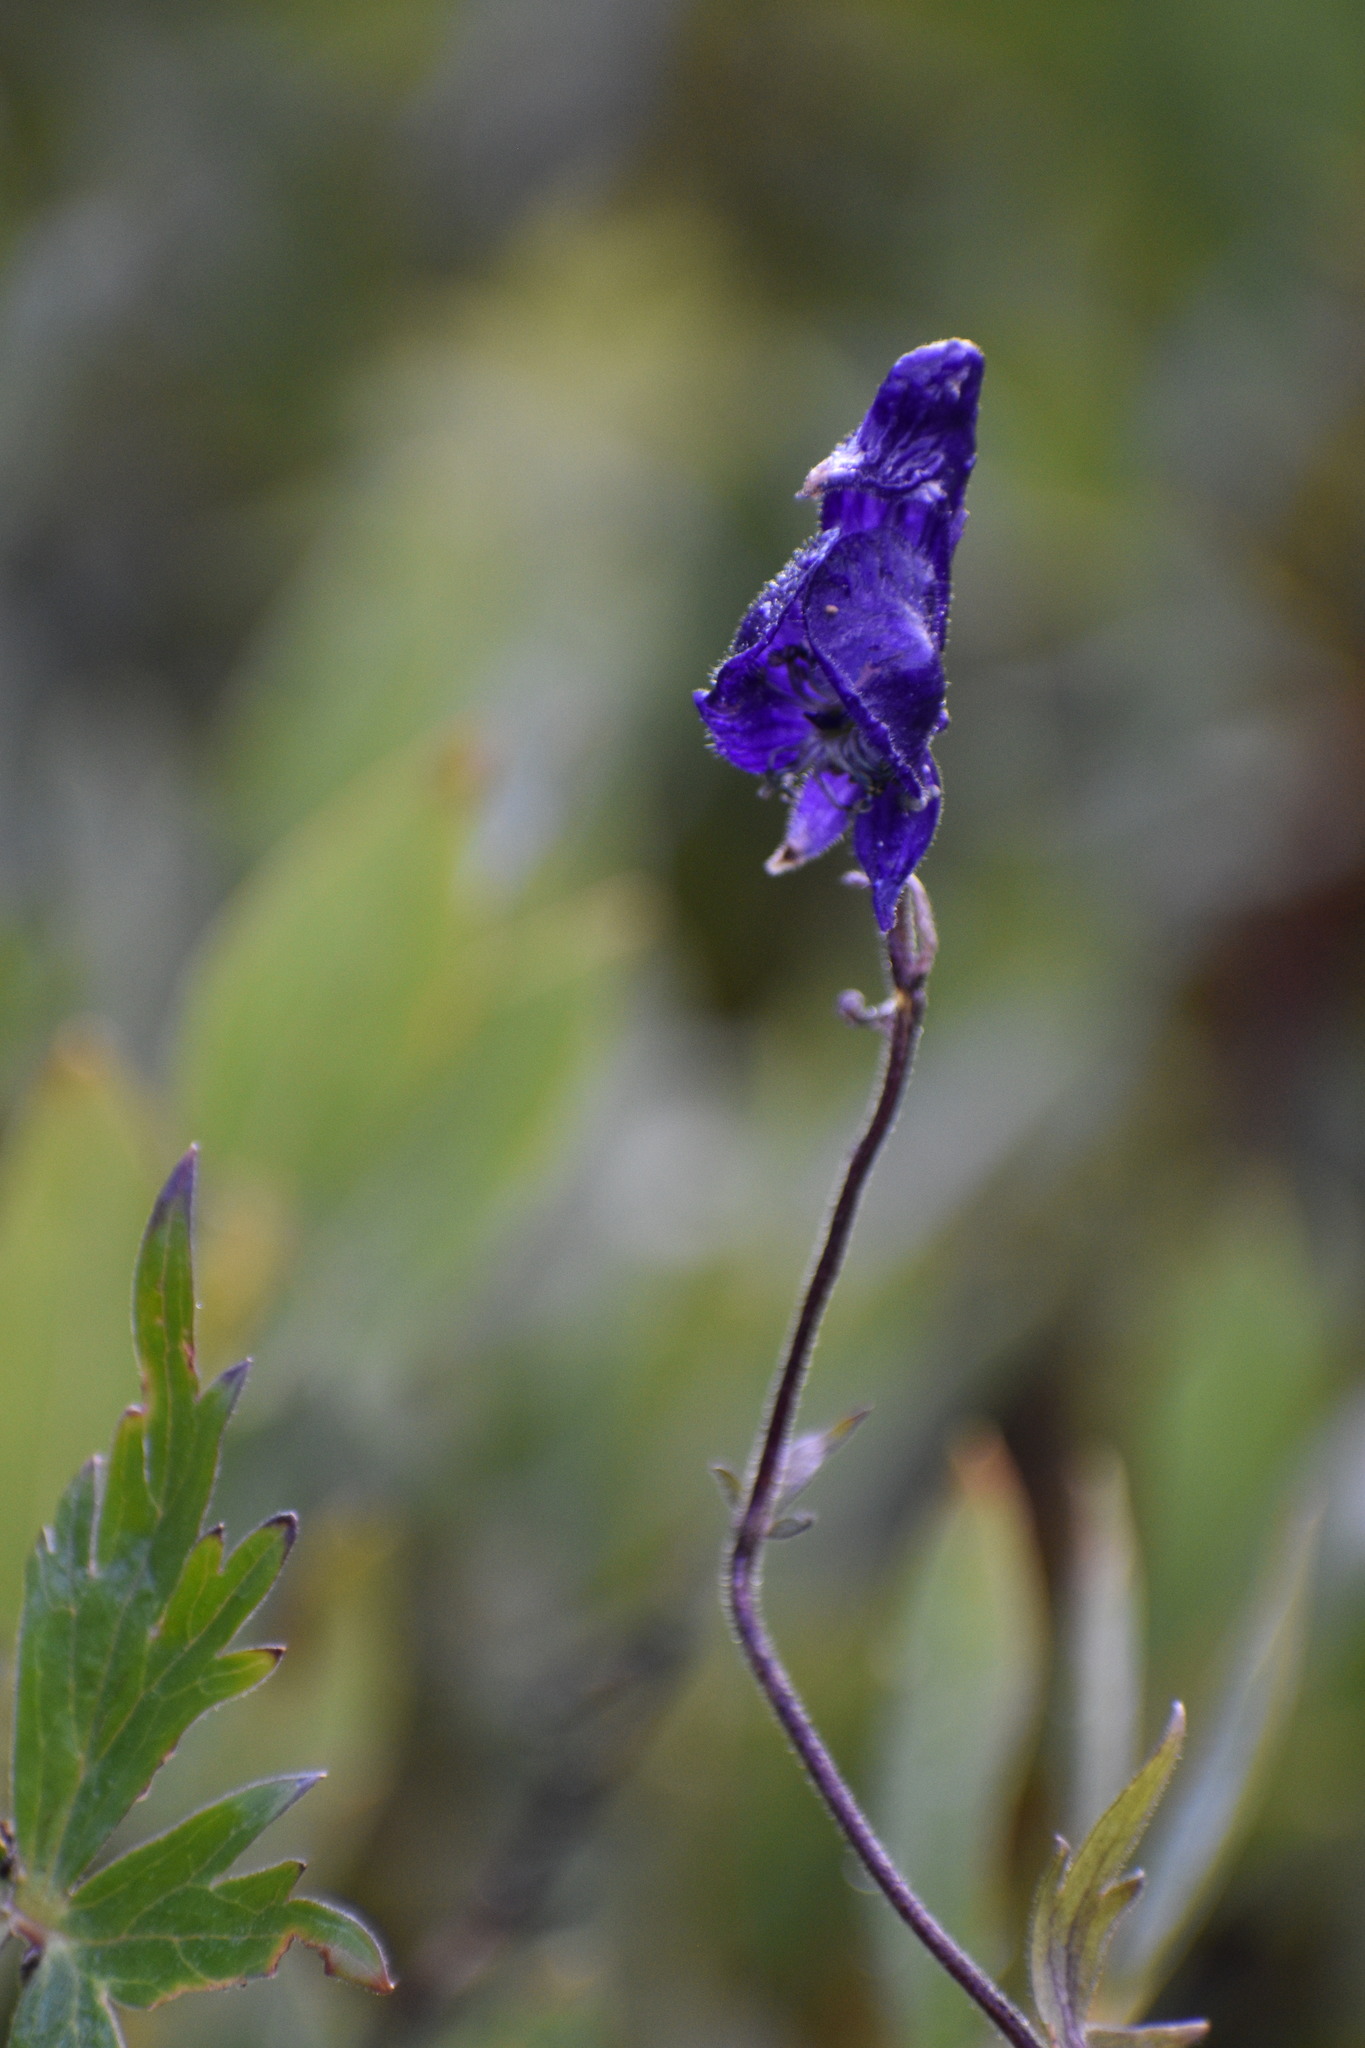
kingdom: Plantae
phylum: Tracheophyta
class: Magnoliopsida
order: Ranunculales
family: Ranunculaceae
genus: Aconitum
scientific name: Aconitum columbianum
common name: Columbia aconite
